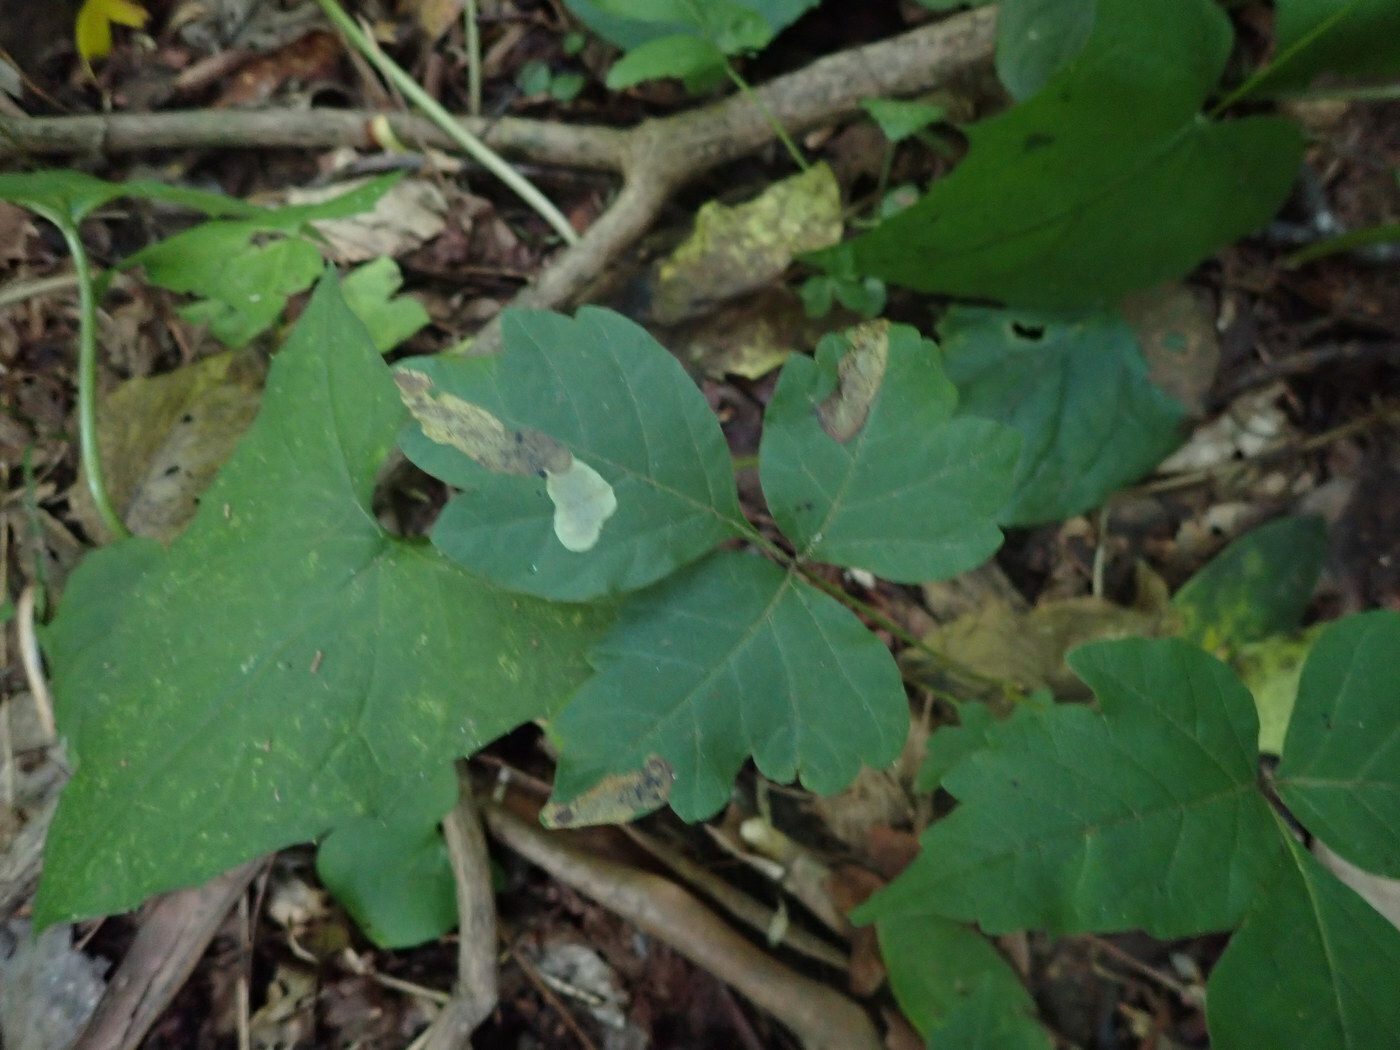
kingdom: Animalia
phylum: Arthropoda
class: Insecta
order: Lepidoptera
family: Gracillariidae
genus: Cameraria
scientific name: Cameraria guttifinitella
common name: Poison ivy leaf-miner moth
